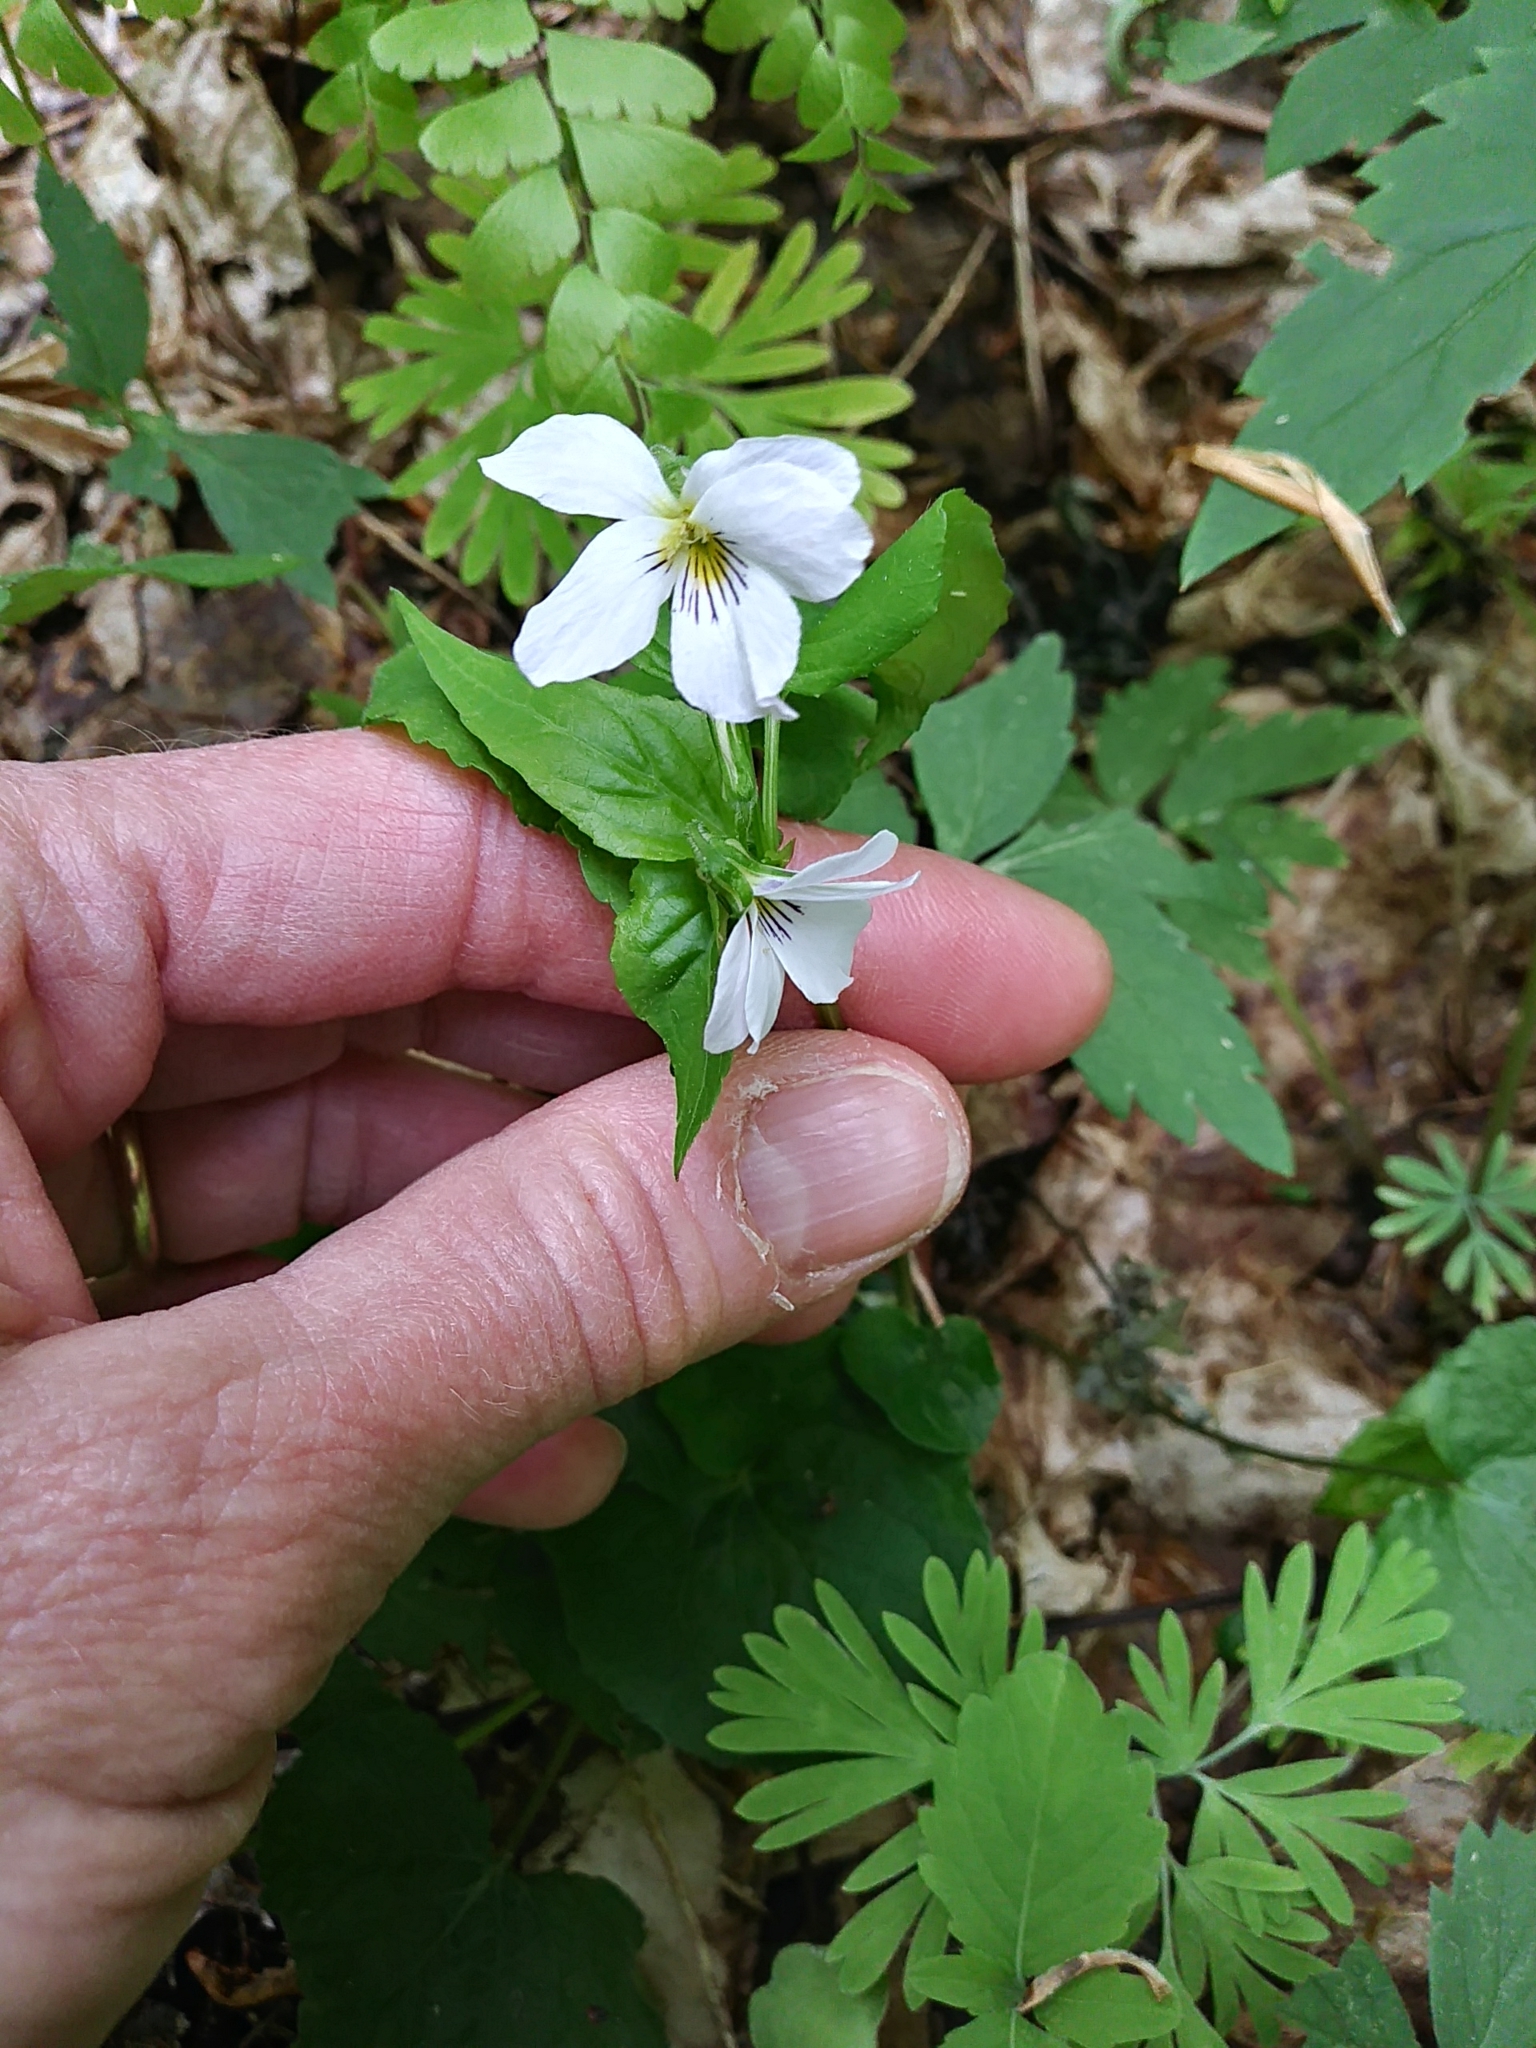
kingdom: Plantae
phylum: Tracheophyta
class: Magnoliopsida
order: Malpighiales
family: Violaceae
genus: Viola
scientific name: Viola canadensis
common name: Canada violet
